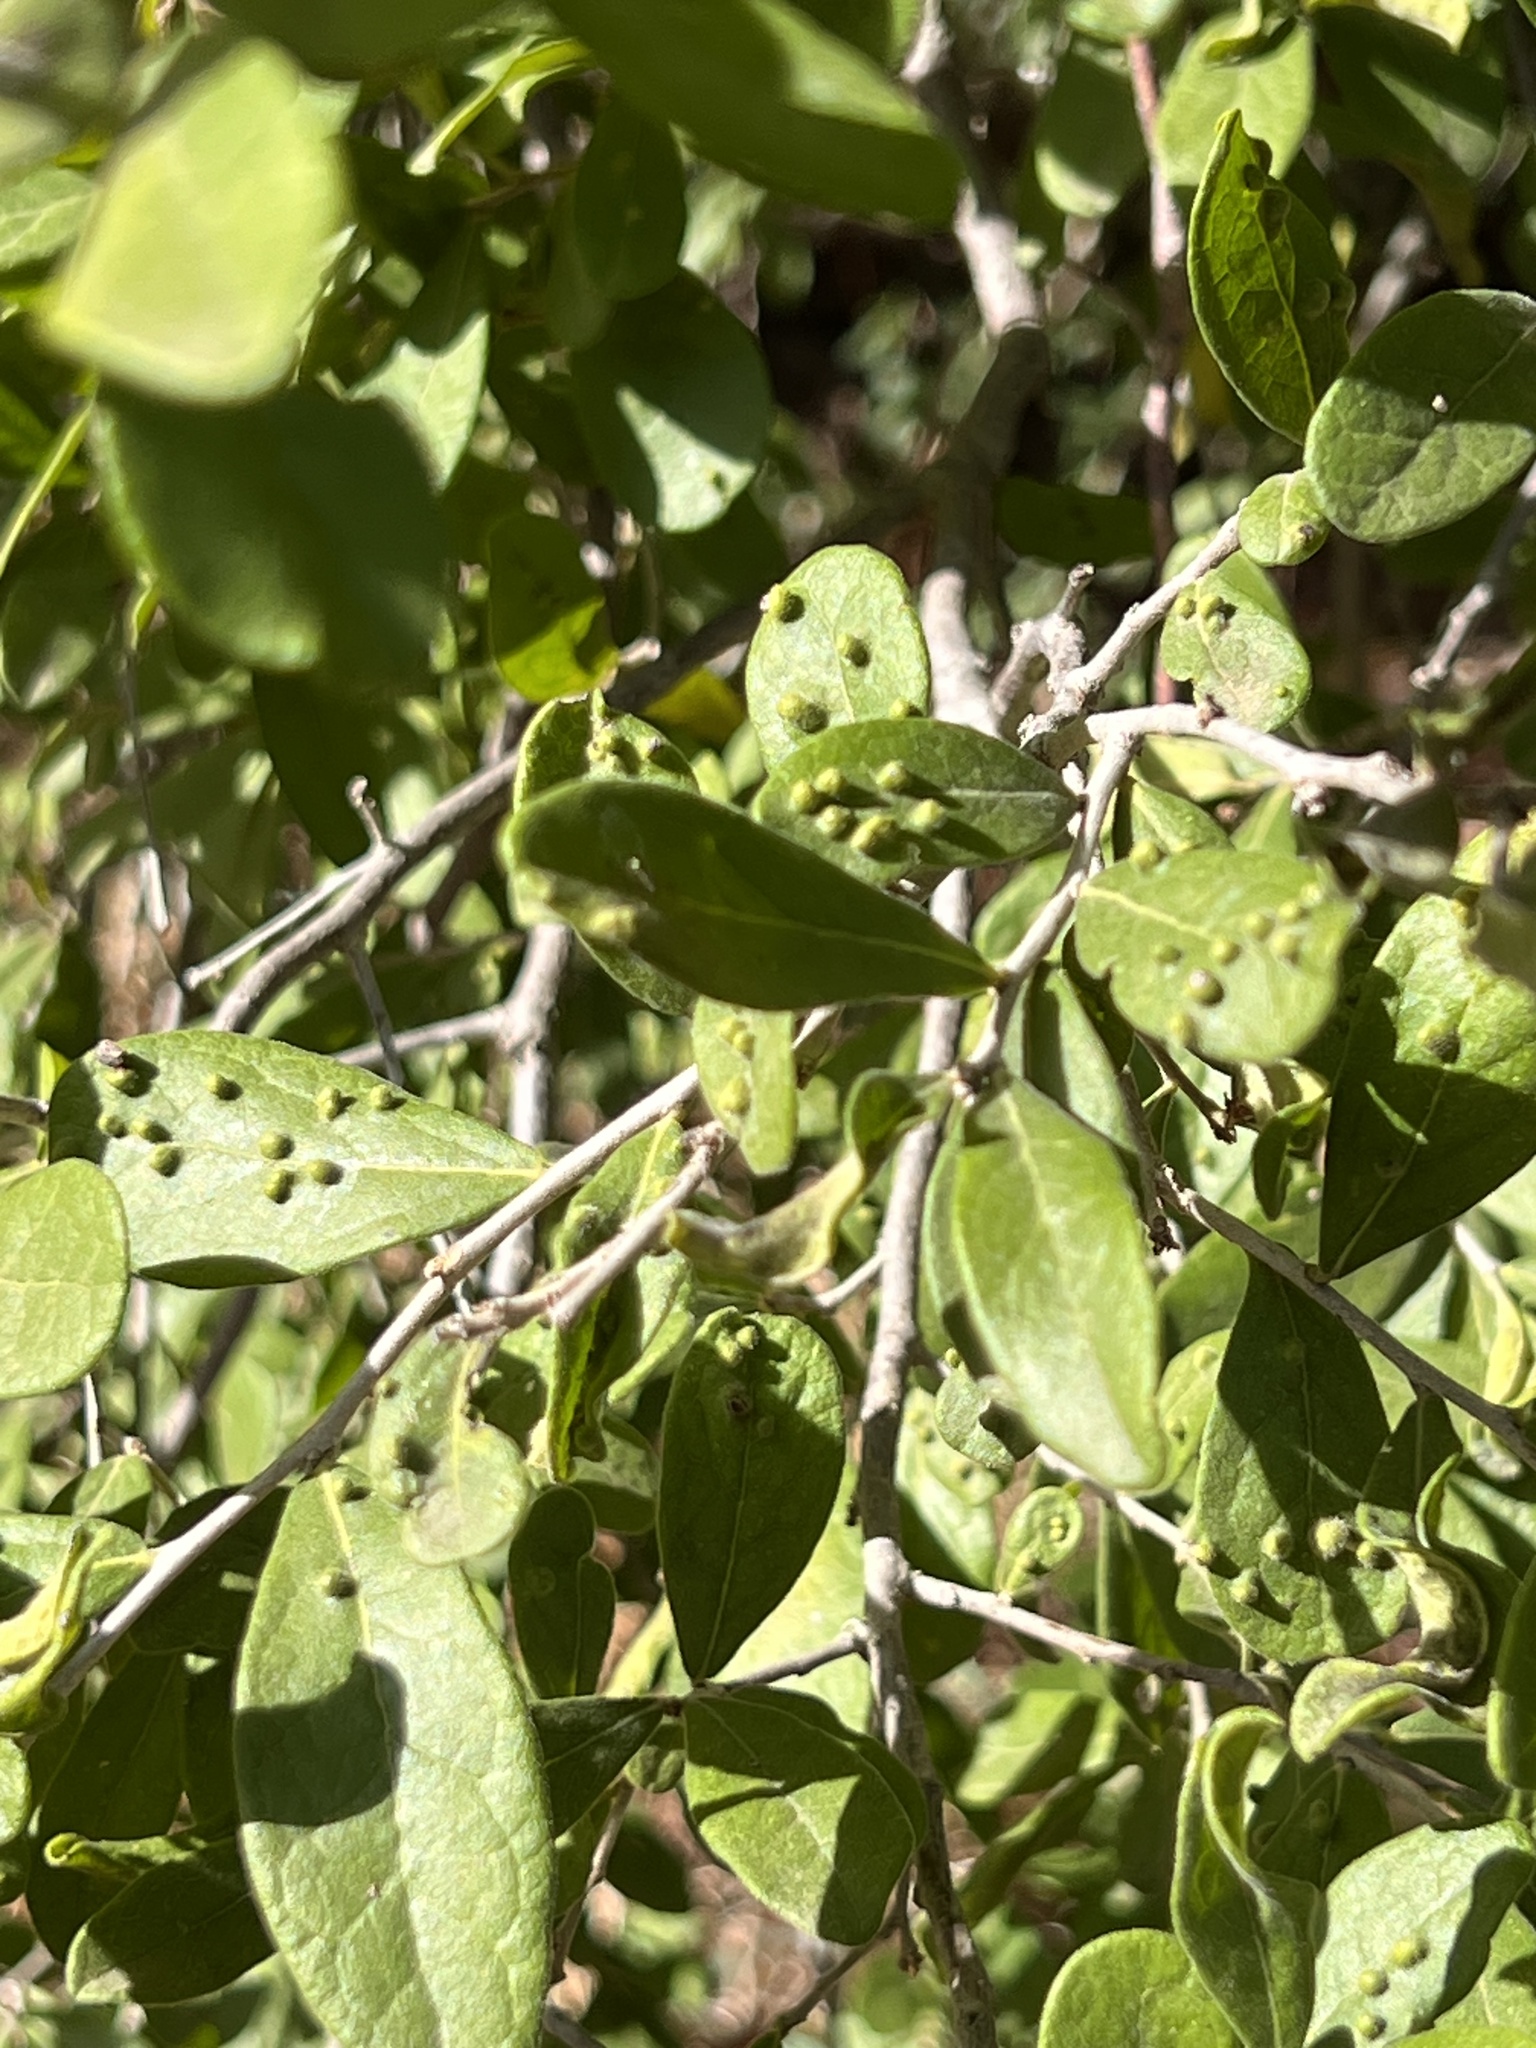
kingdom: Animalia
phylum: Arthropoda
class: Arachnida
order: Trombidiformes
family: Eriophyidae
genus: Aceria
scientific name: Aceria
